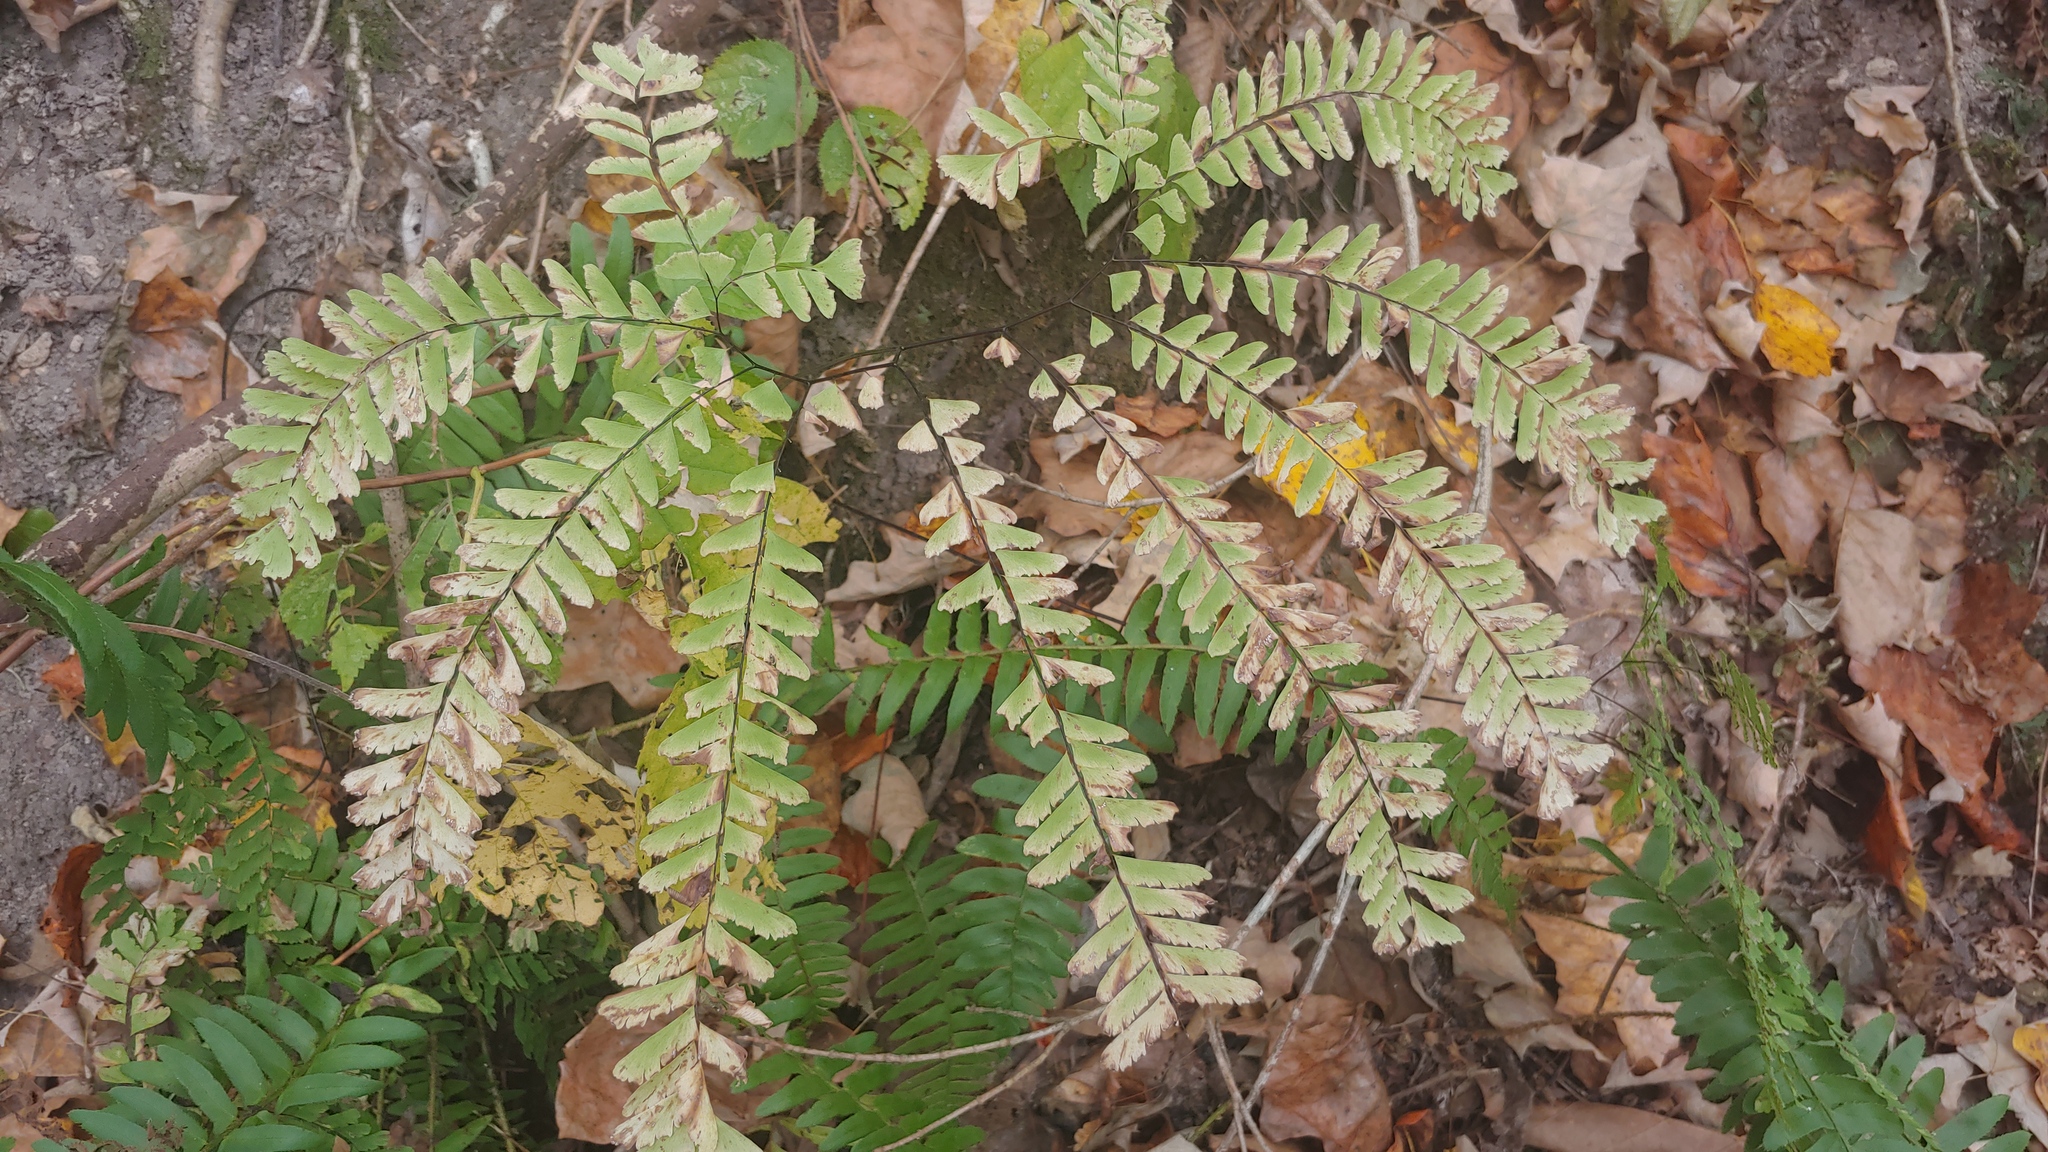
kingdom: Plantae
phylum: Tracheophyta
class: Polypodiopsida
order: Polypodiales
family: Pteridaceae
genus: Adiantum
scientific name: Adiantum pedatum
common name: Five-finger fern
